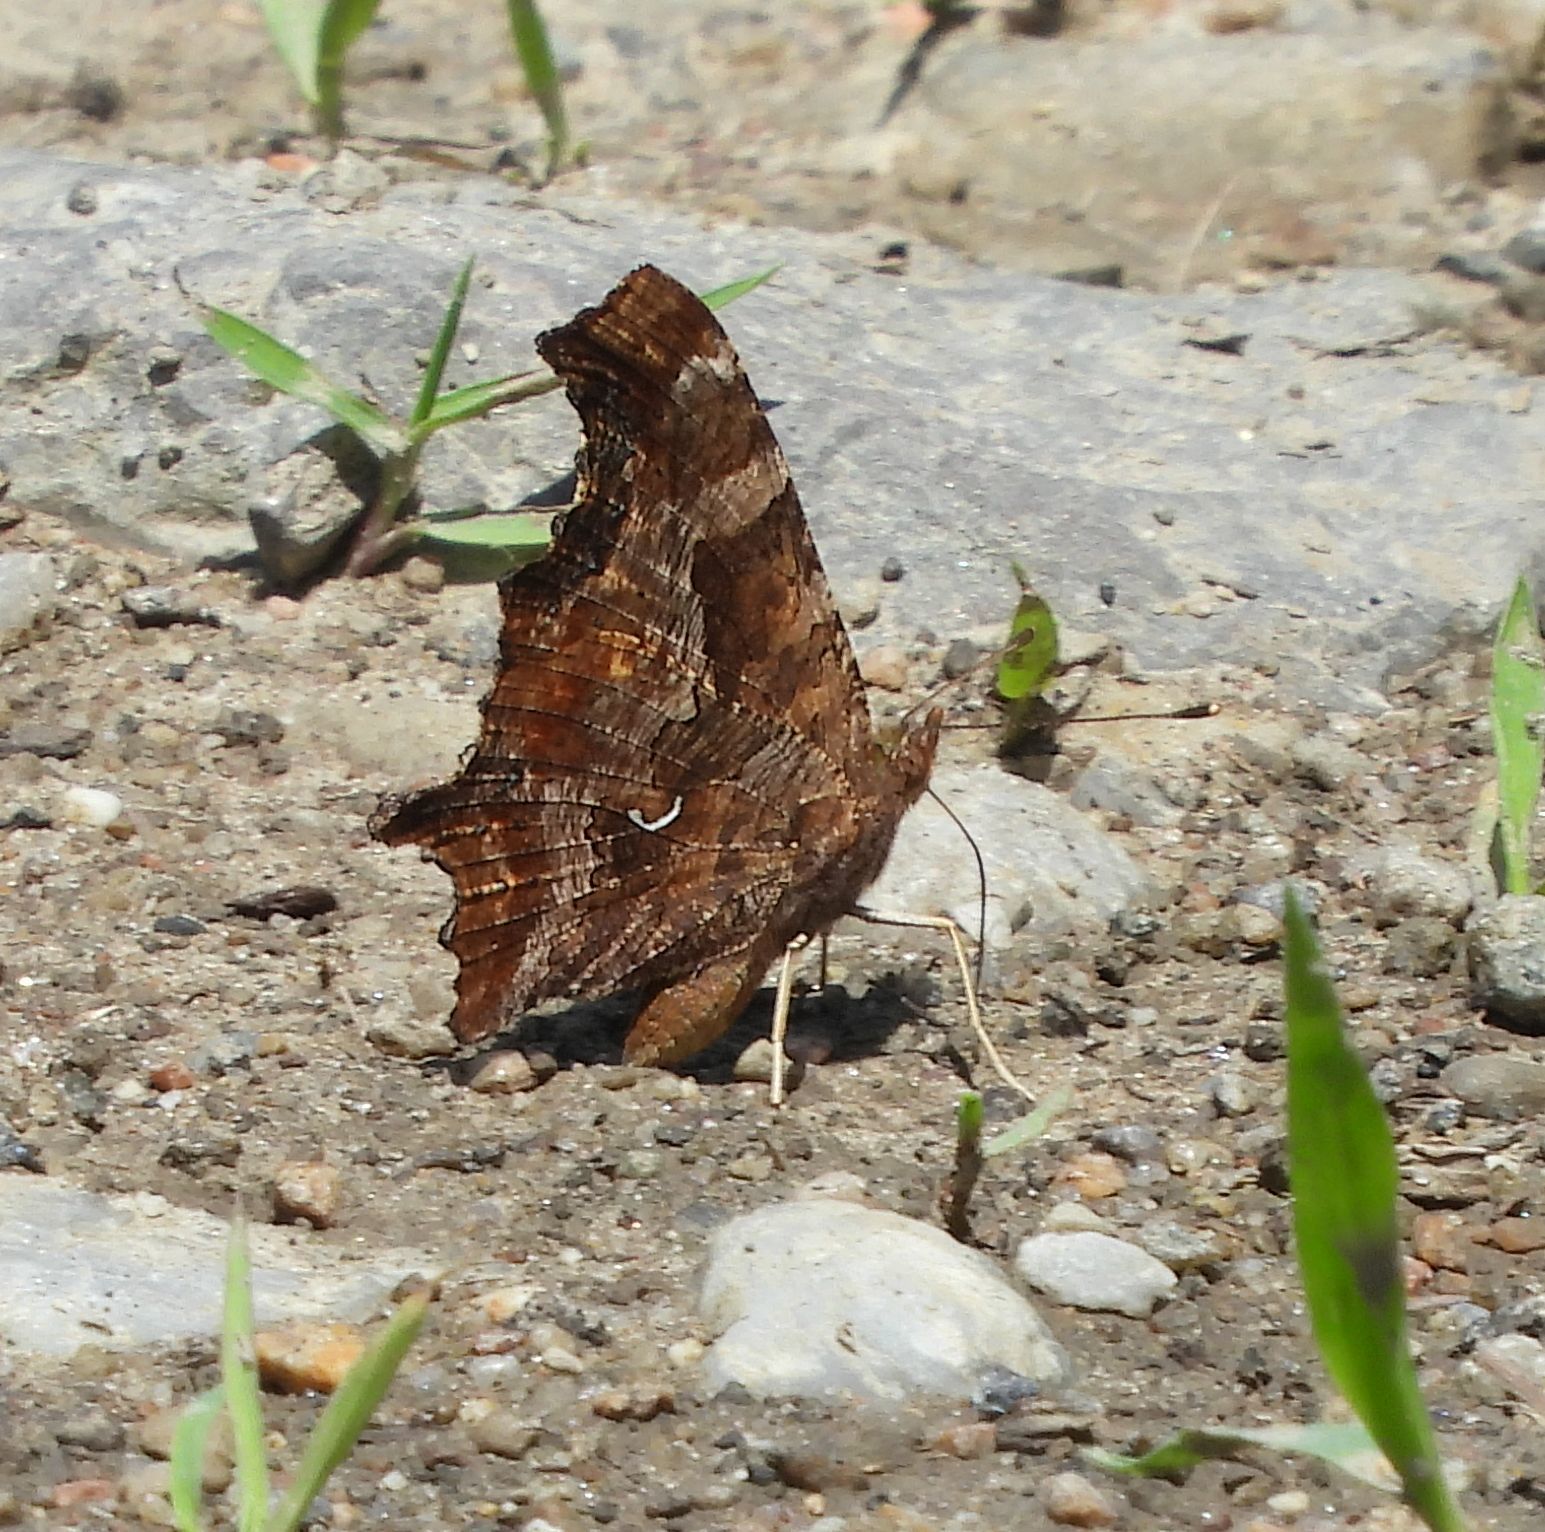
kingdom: Animalia
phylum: Arthropoda
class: Insecta
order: Lepidoptera
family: Nymphalidae
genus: Polygonia
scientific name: Polygonia comma
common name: Eastern comma
